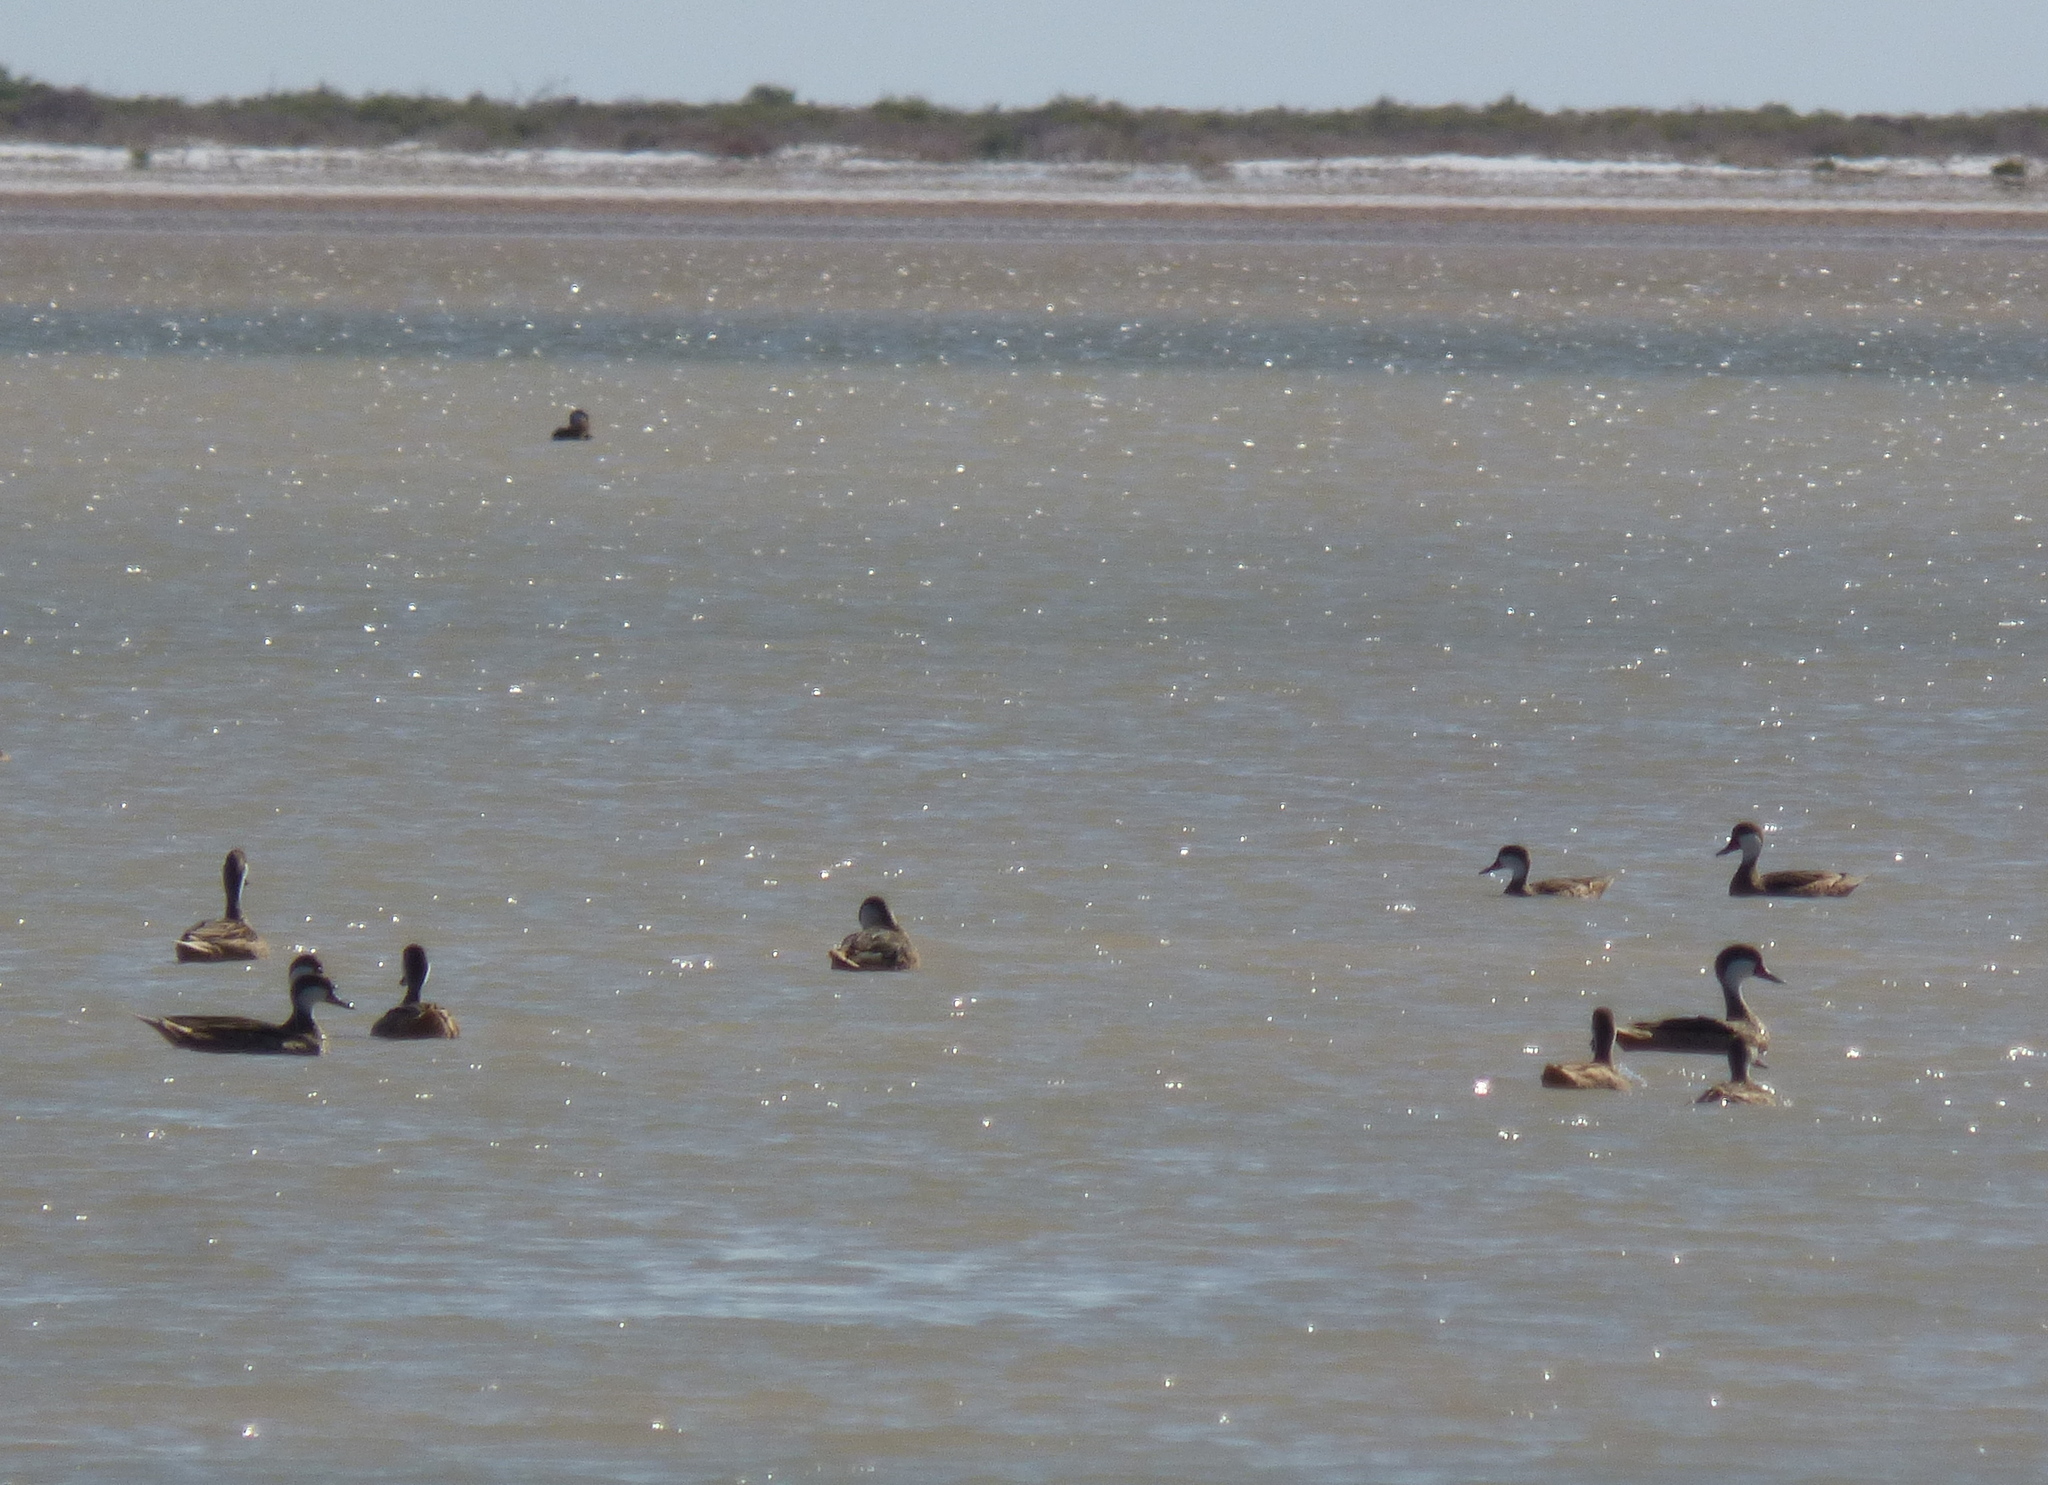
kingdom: Animalia
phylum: Chordata
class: Aves
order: Anseriformes
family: Anatidae
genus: Anas
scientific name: Anas bahamensis
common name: White-cheeked pintail
